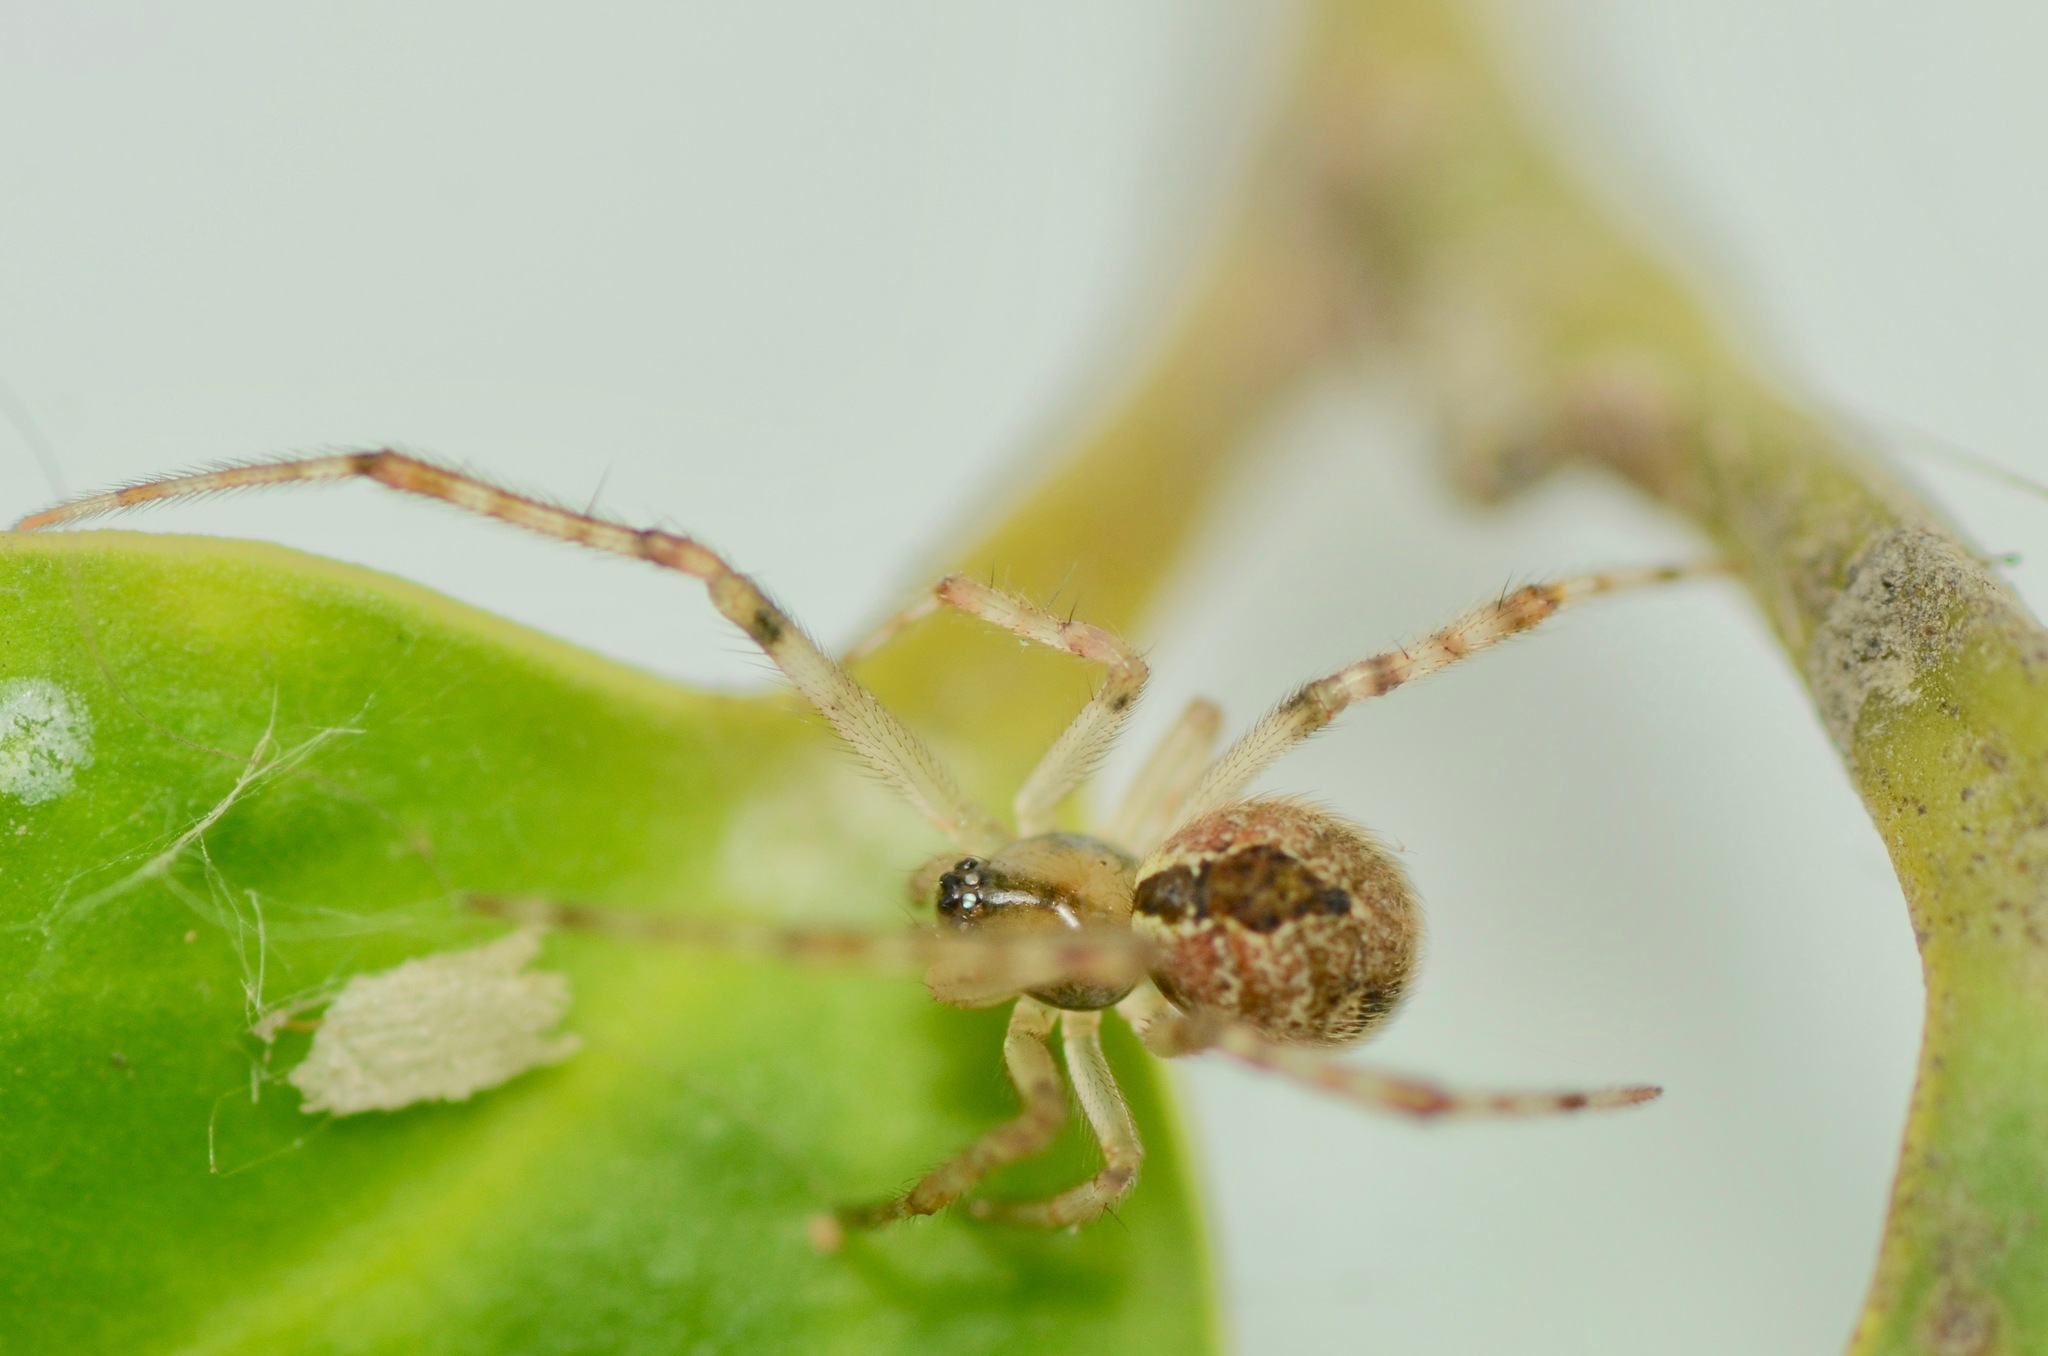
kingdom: Animalia
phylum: Arthropoda
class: Arachnida
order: Araneae
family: Theridiidae
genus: Cryptachaea
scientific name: Cryptachaea veruculata
